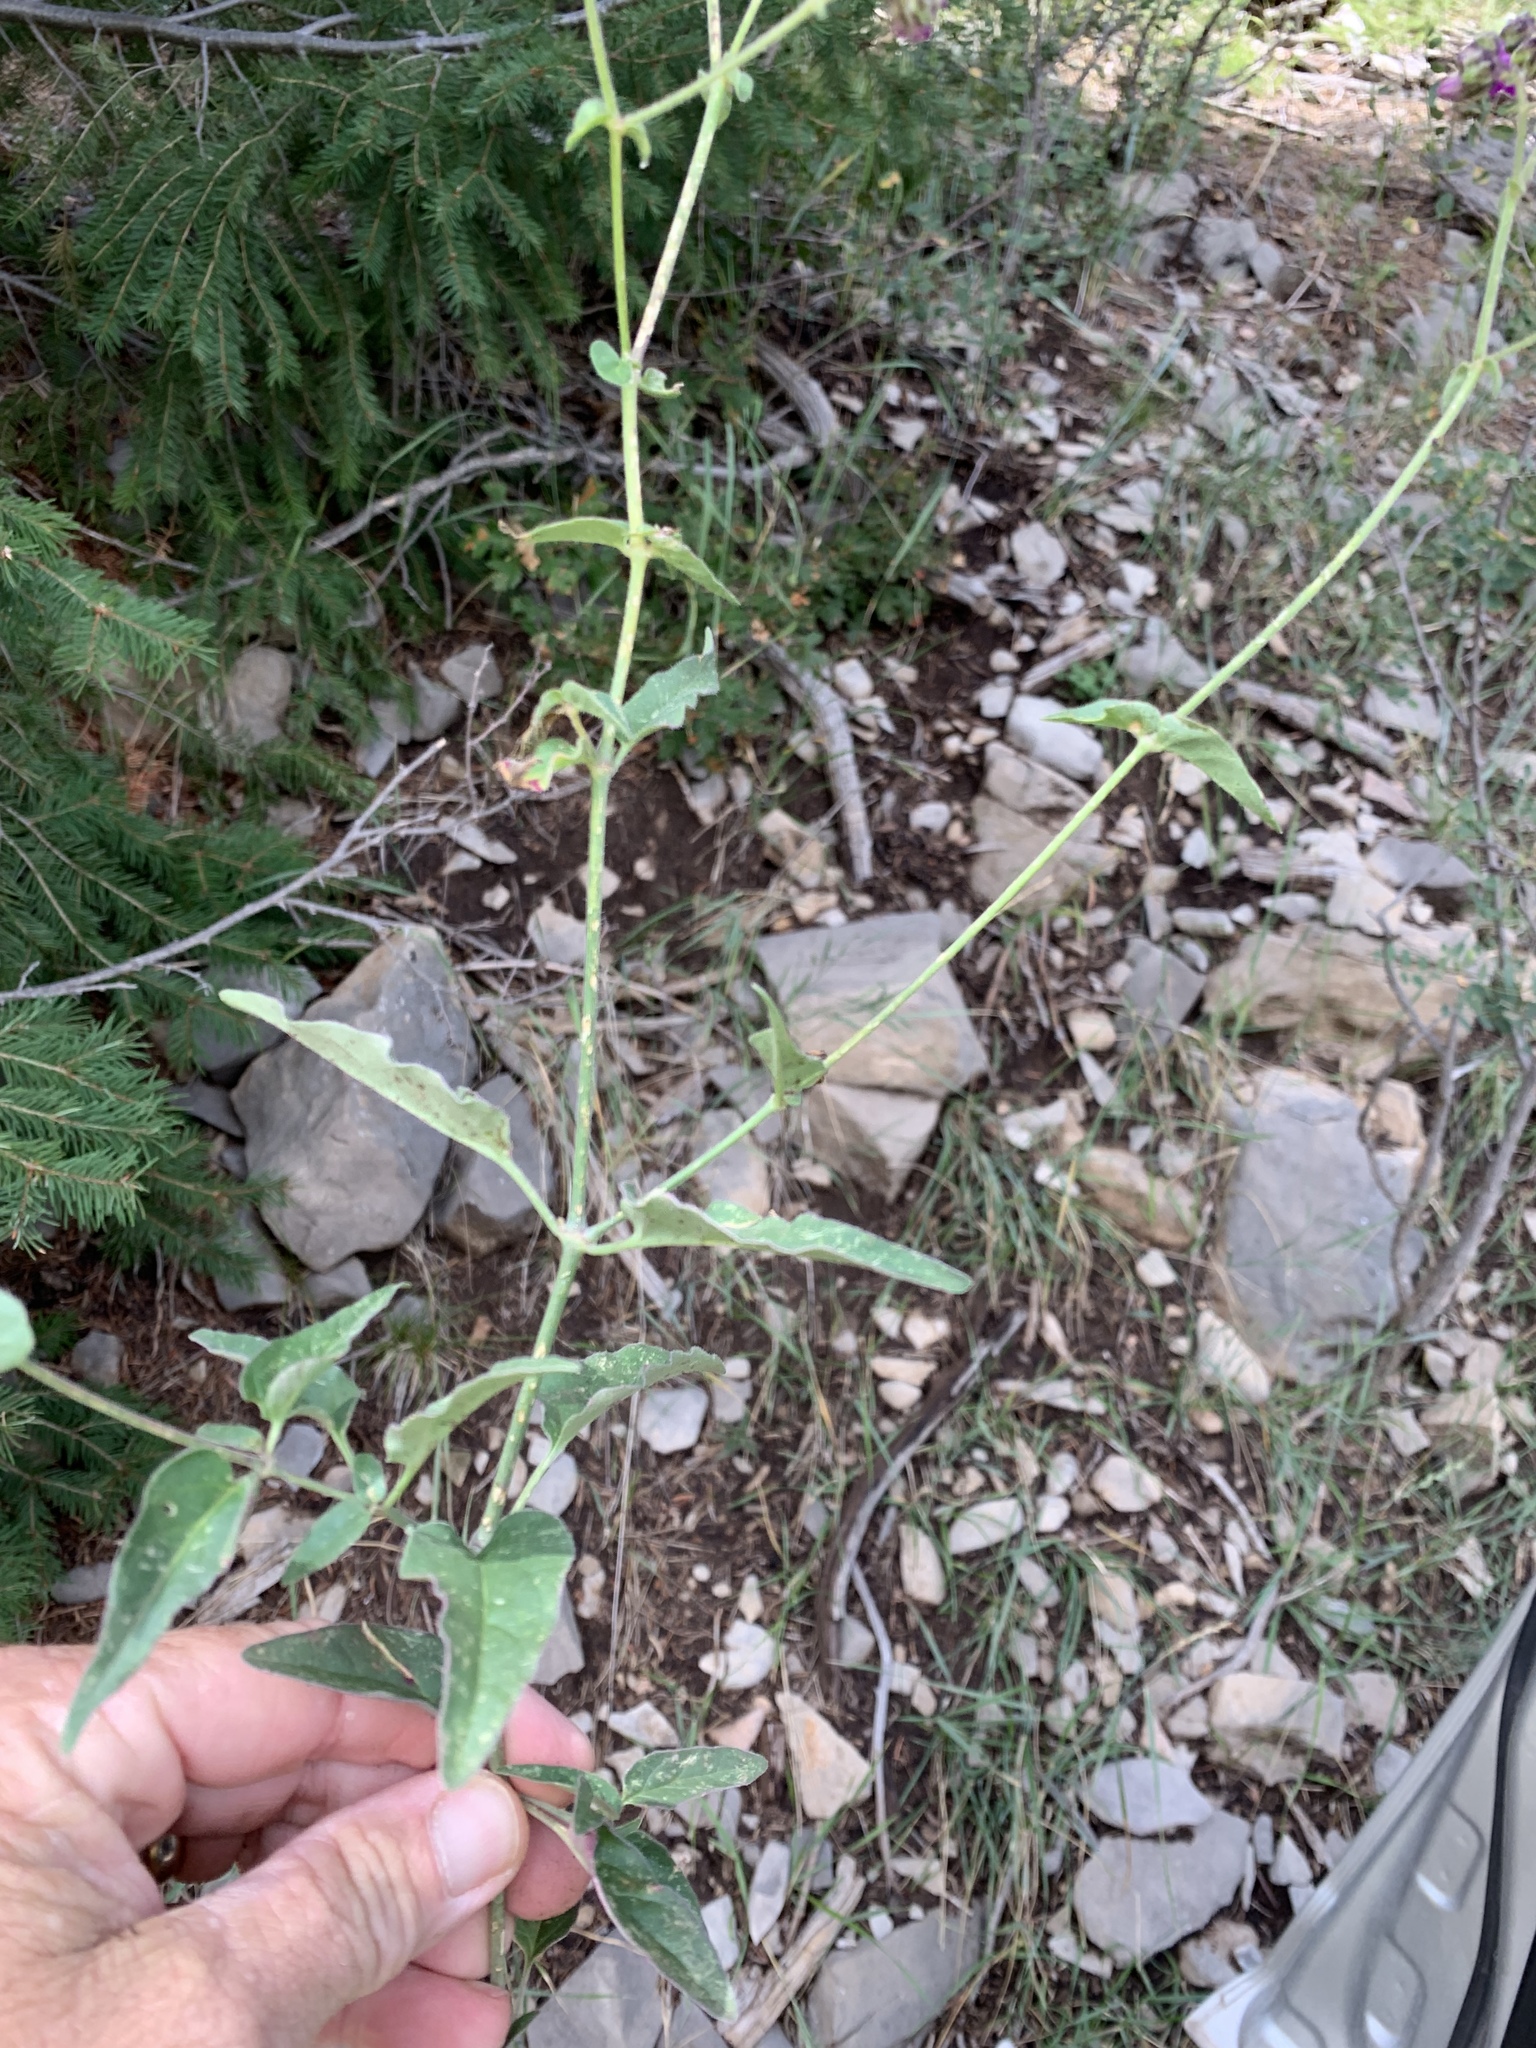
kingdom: Plantae
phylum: Tracheophyta
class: Magnoliopsida
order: Caryophyllales
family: Nyctaginaceae
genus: Mirabilis
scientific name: Mirabilis melanotricha
